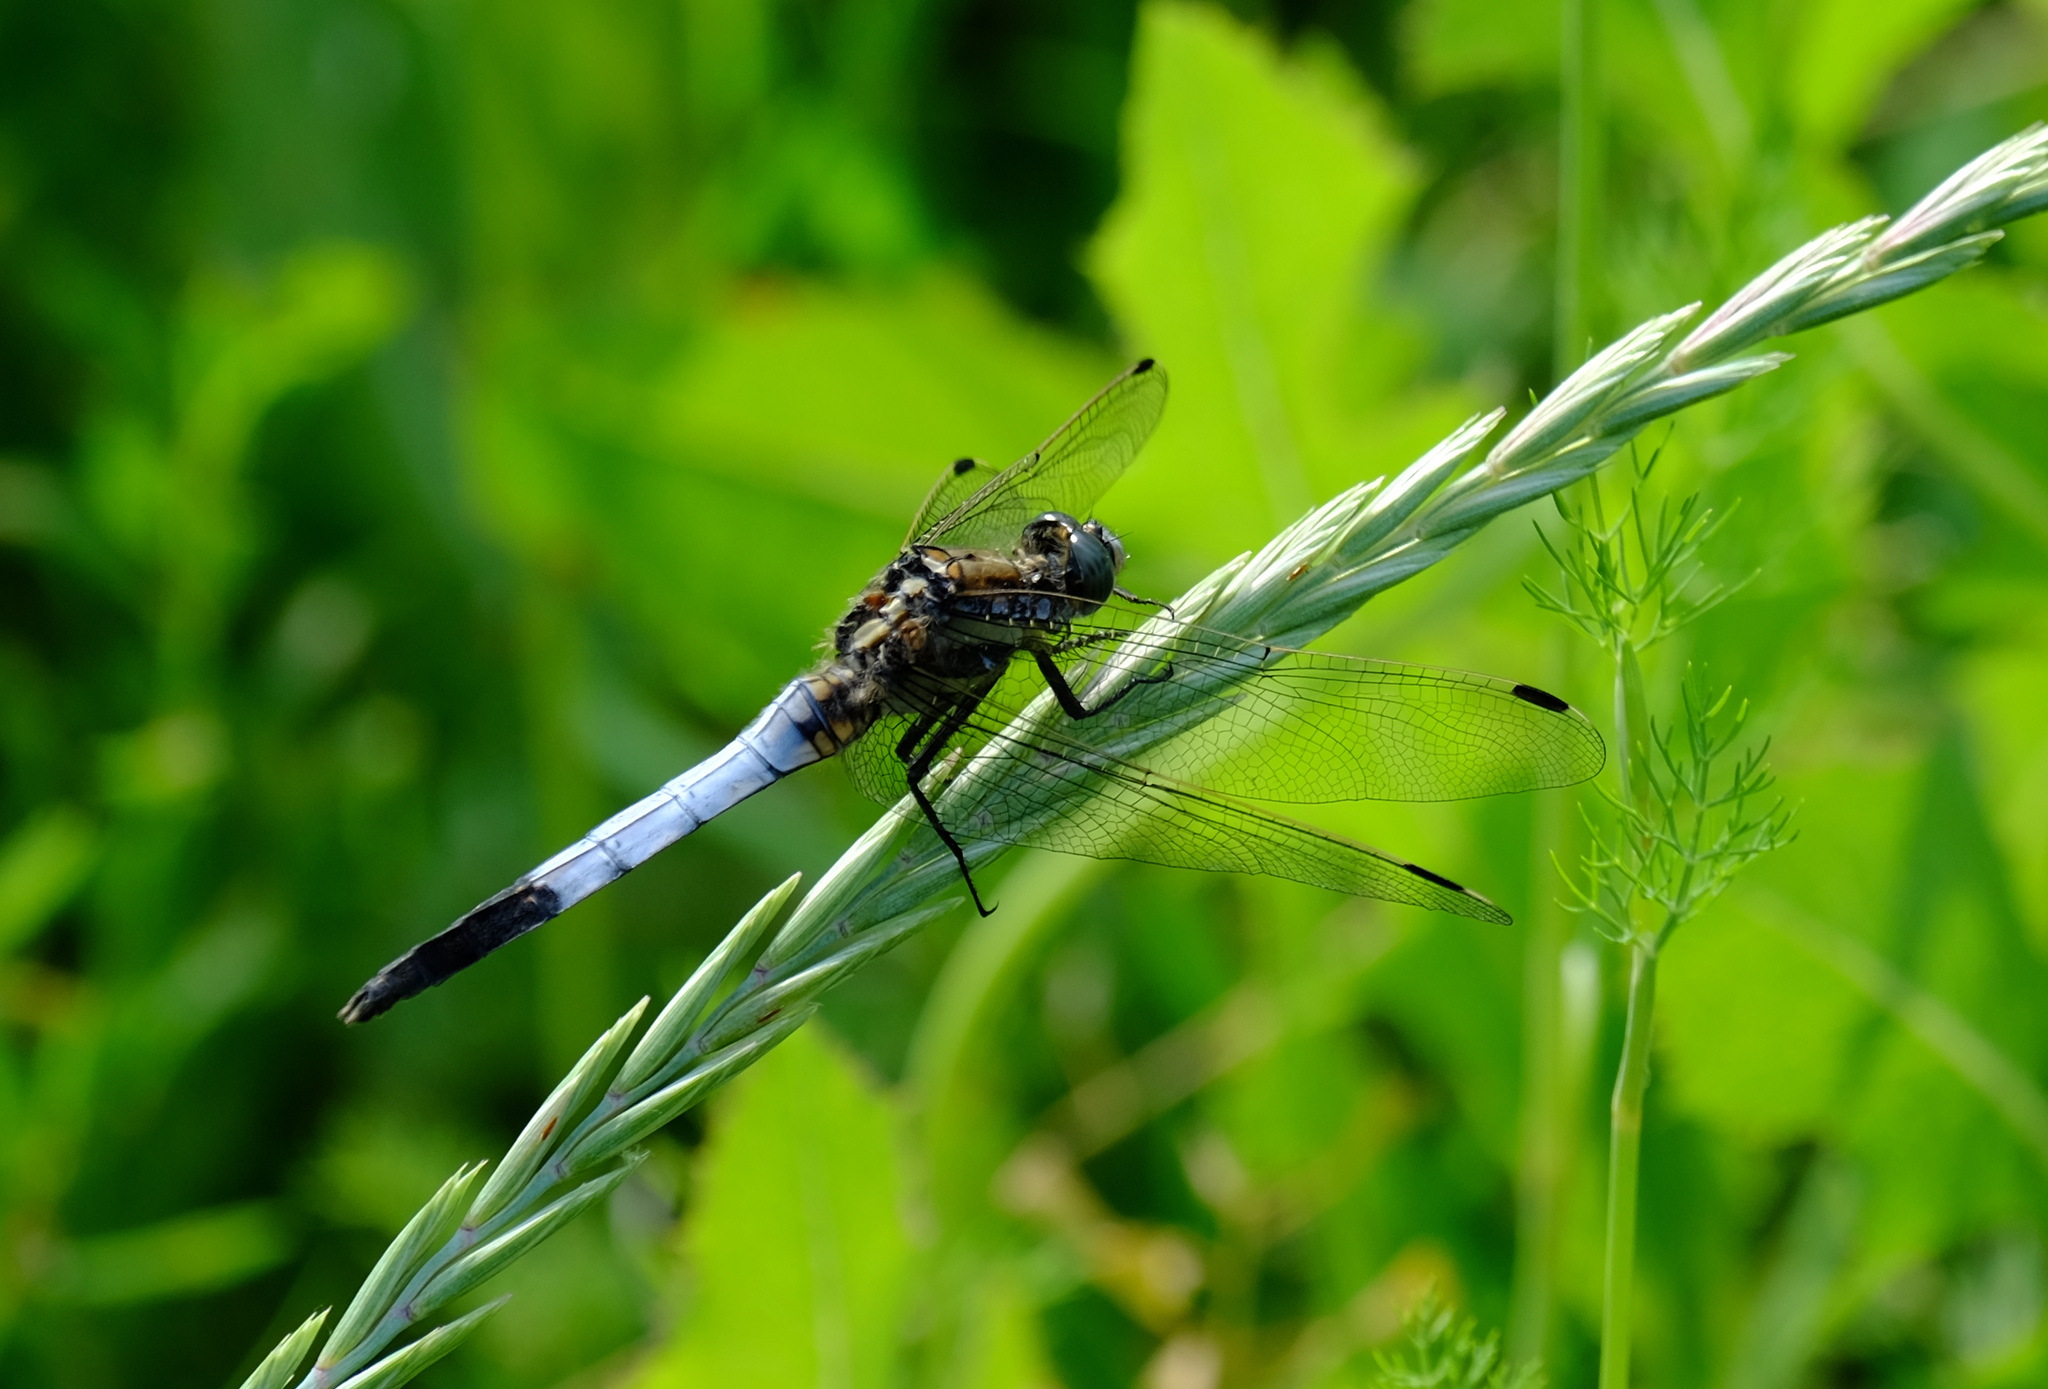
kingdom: Animalia
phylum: Arthropoda
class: Insecta
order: Odonata
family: Libellulidae
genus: Orthetrum
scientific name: Orthetrum albistylum
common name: White-tailed skimmer
